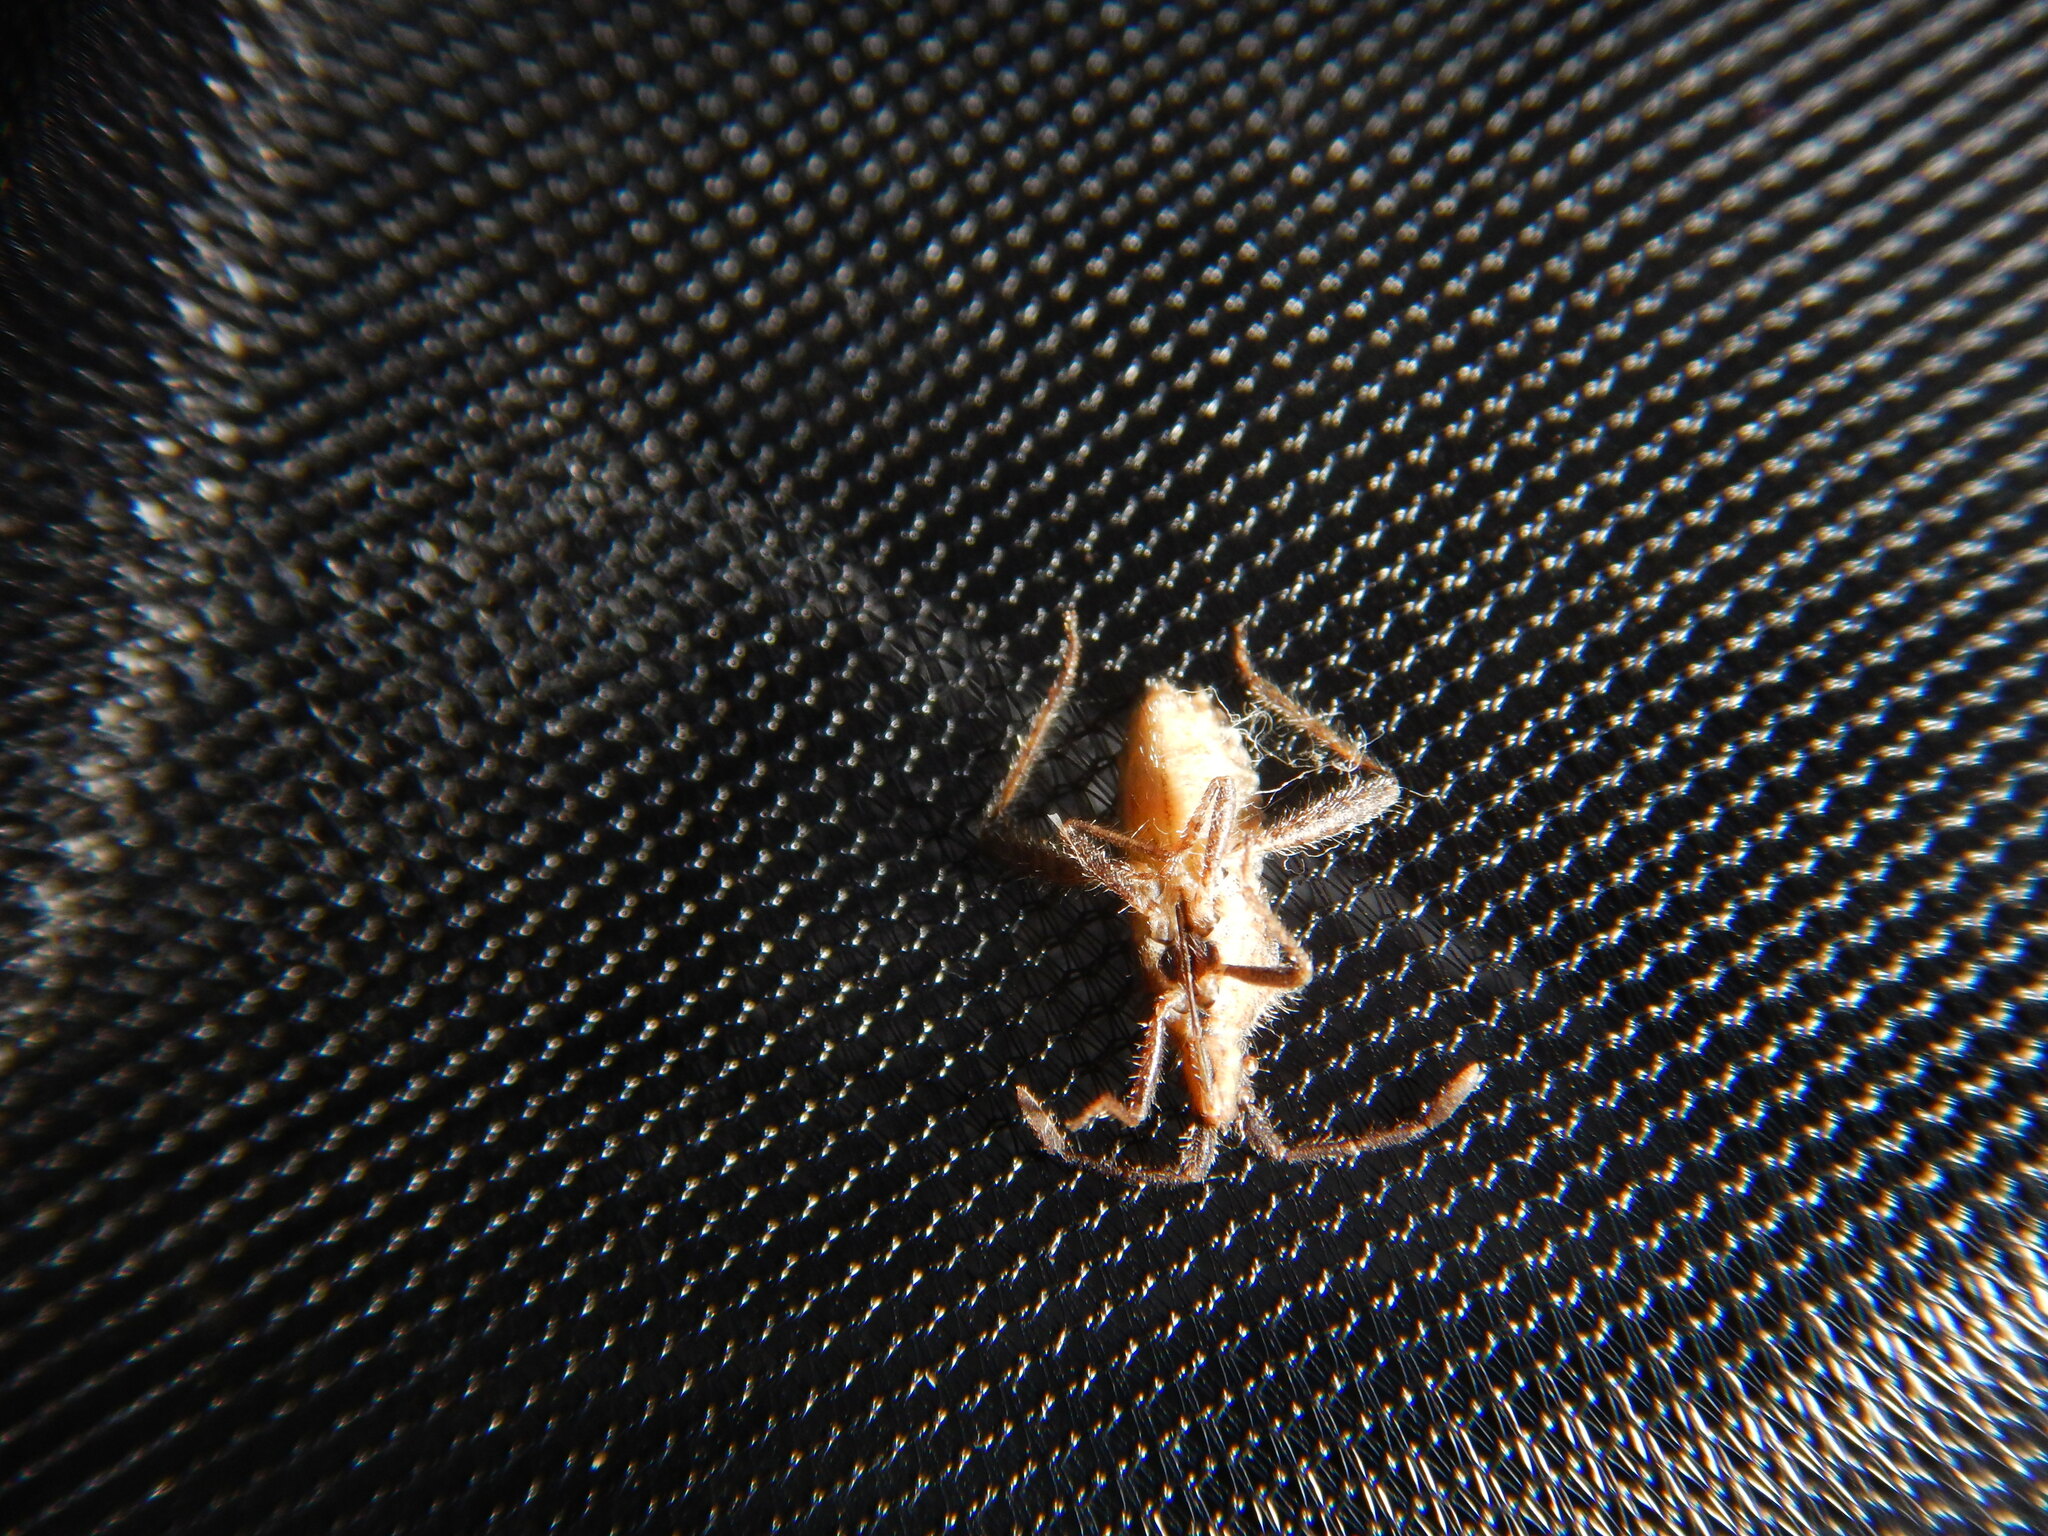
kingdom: Animalia
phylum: Arthropoda
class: Insecta
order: Hemiptera
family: Coreidae
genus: Coriomeris
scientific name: Coriomeris hirticornis
